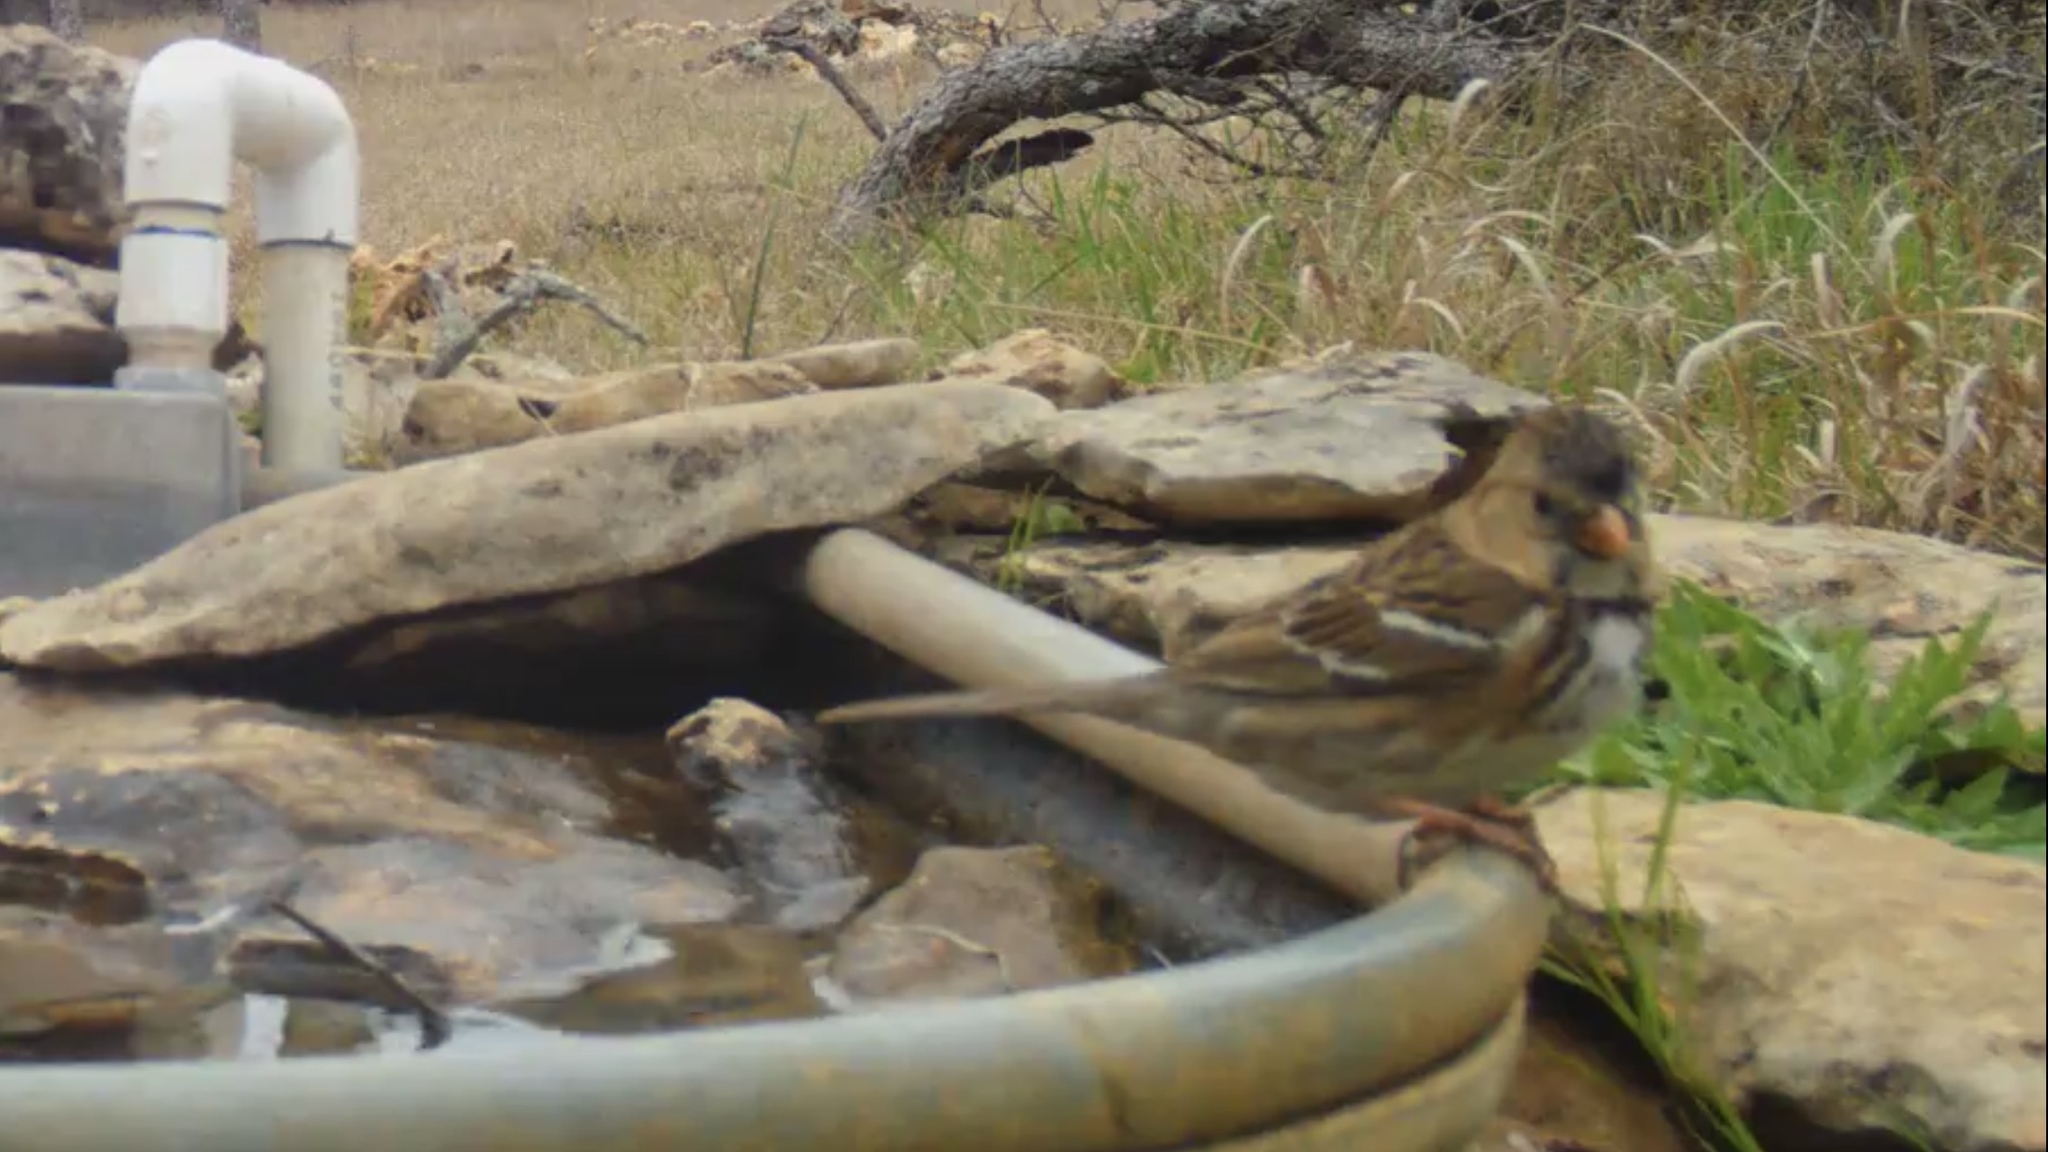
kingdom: Animalia
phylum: Chordata
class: Aves
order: Passeriformes
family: Passerellidae
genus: Zonotrichia
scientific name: Zonotrichia querula
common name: Harris's sparrow
